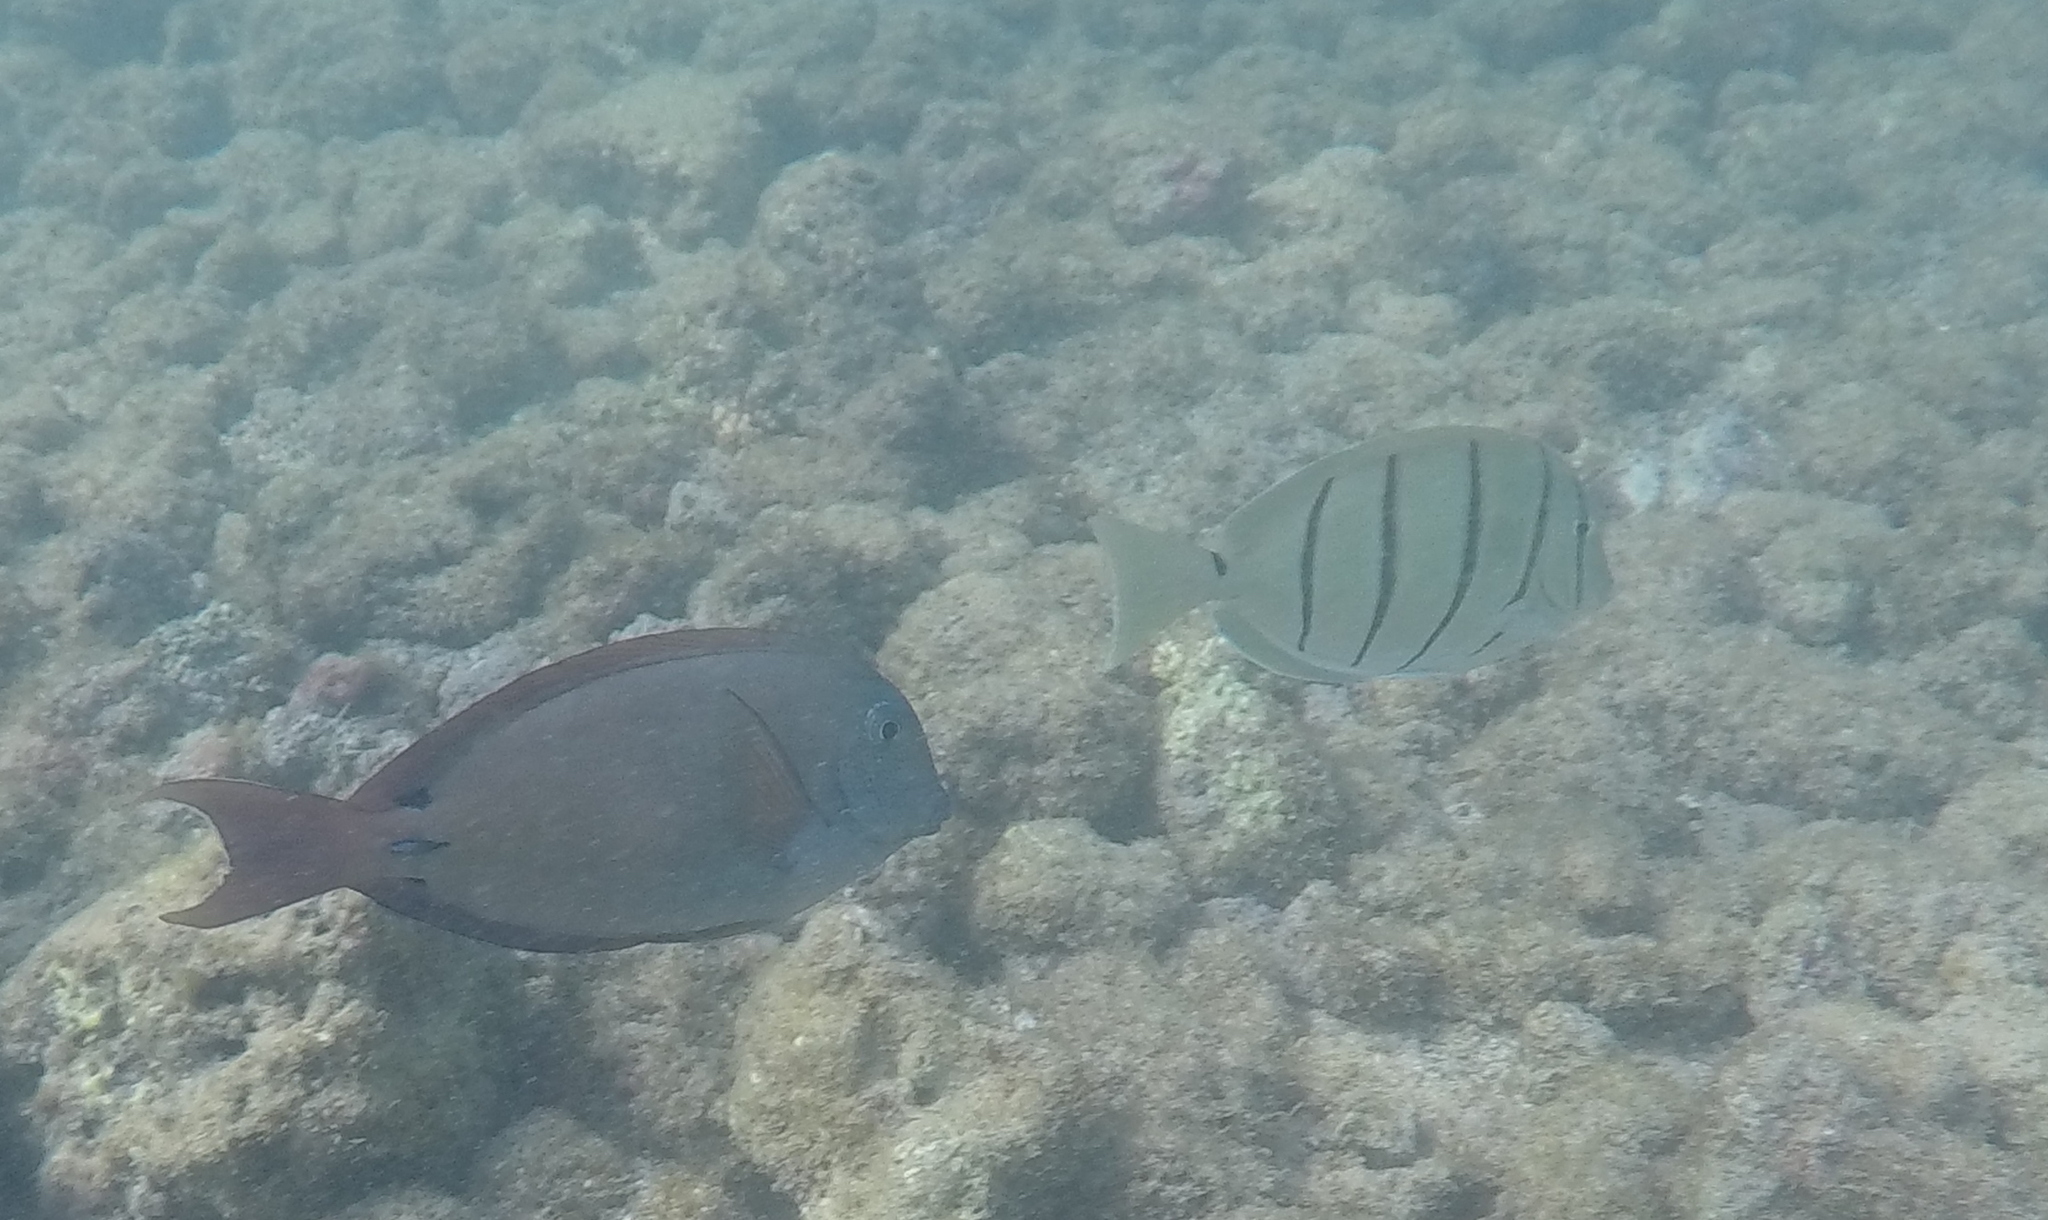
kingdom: Animalia
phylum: Chordata
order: Perciformes
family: Acanthuridae
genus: Acanthurus
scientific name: Acanthurus nigrofuscus
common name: Blackspot surgeonfish
